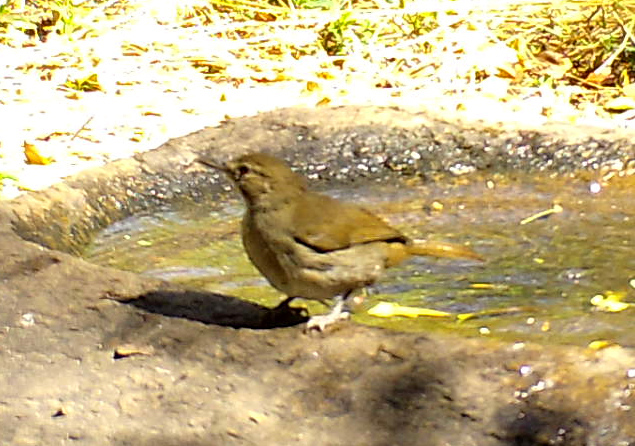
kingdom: Animalia
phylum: Chordata
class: Aves
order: Passeriformes
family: Pycnonotidae
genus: Phyllastrephus
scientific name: Phyllastrephus terrestris
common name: Terrestrial brownbul
